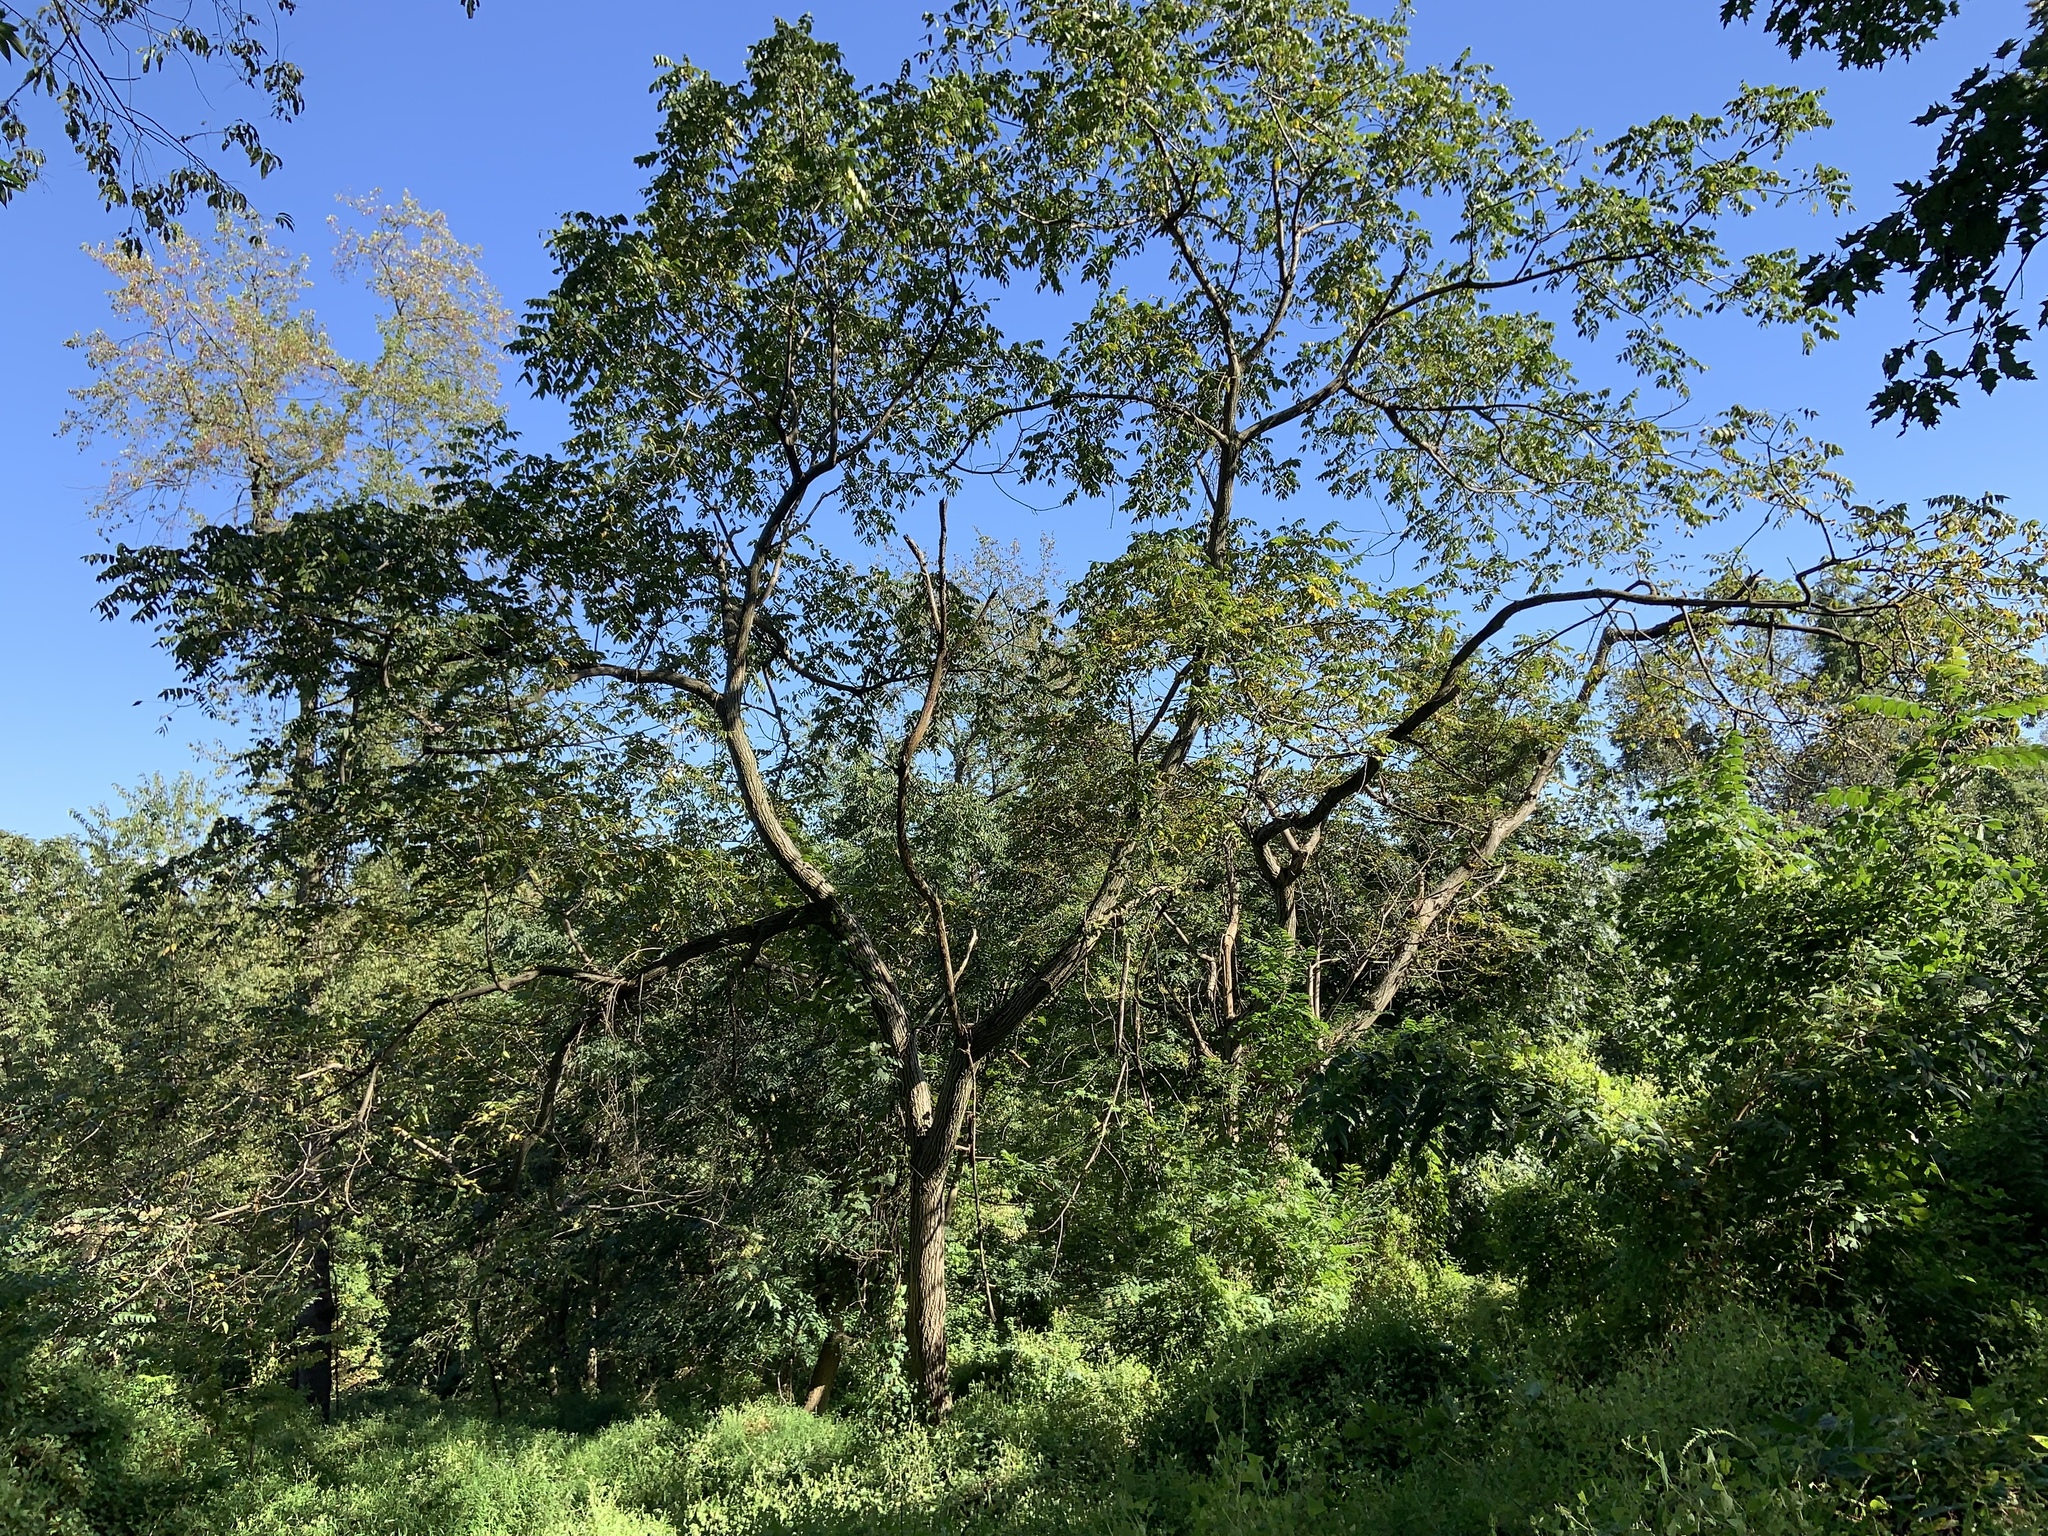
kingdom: Plantae
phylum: Tracheophyta
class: Magnoliopsida
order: Fagales
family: Juglandaceae
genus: Juglans
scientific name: Juglans cinerea
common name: Butternut
